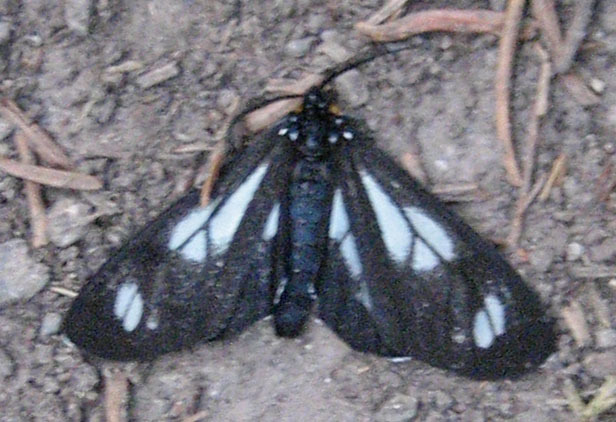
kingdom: Animalia
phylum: Arthropoda
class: Insecta
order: Lepidoptera
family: Erebidae
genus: Gnophaela
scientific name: Gnophaela vermiculata
